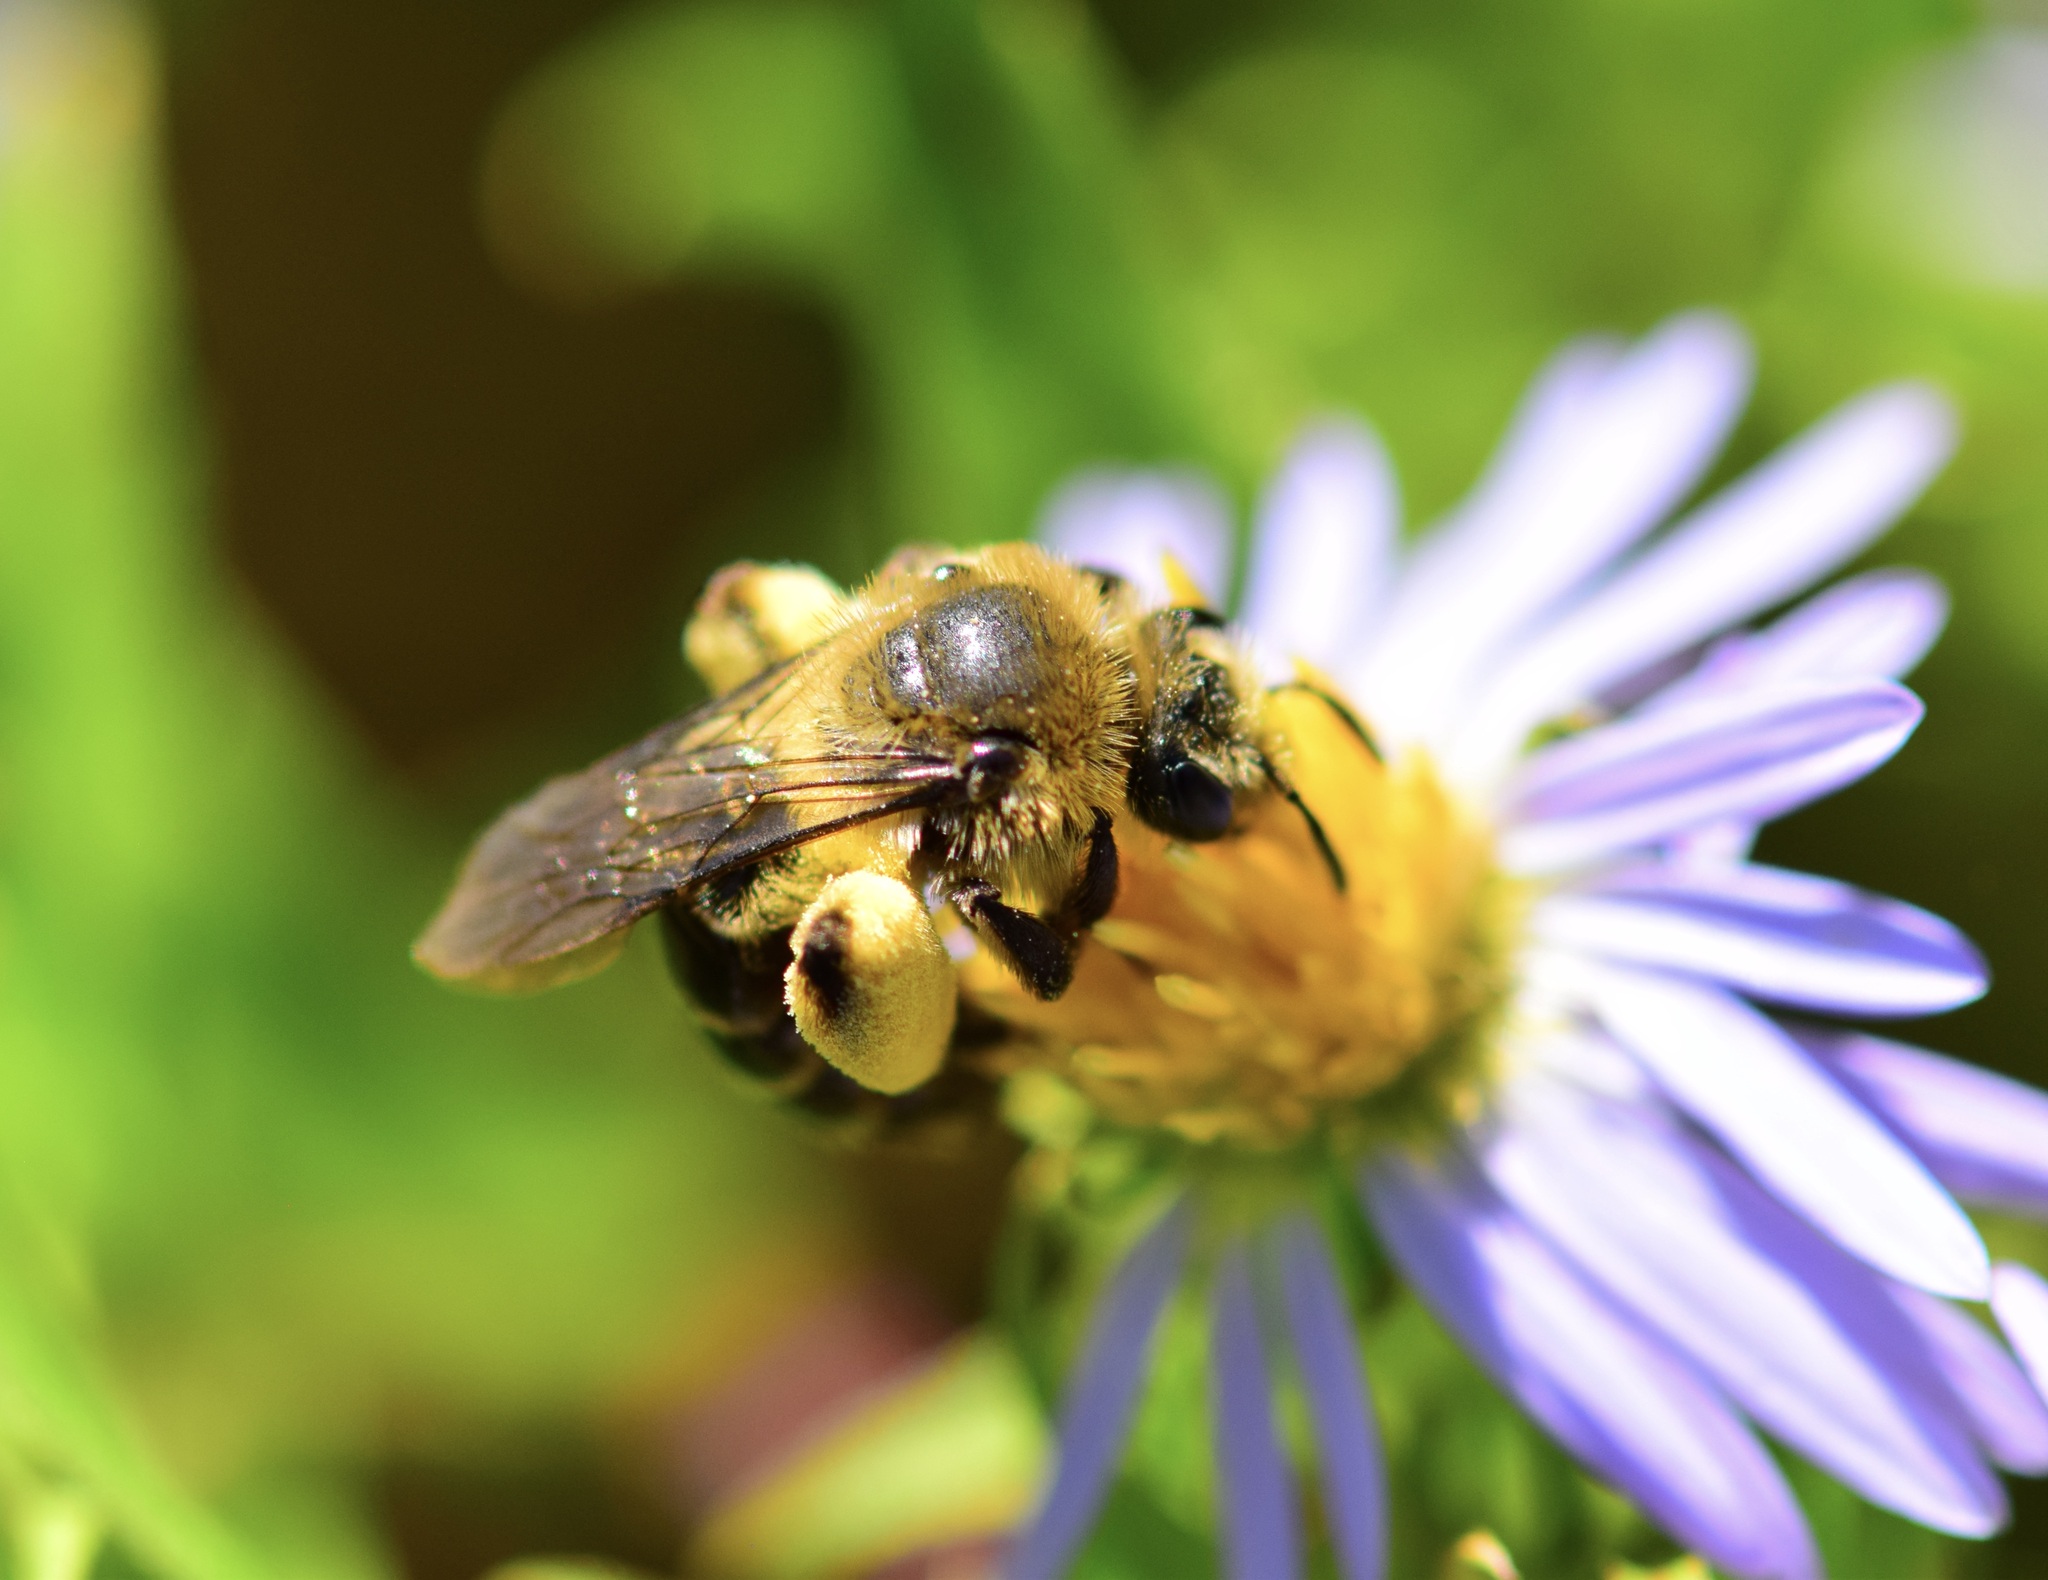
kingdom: Animalia
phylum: Arthropoda
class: Insecta
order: Hymenoptera
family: Andrenidae
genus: Andrena
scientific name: Andrena asteris
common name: Aster mining bee
